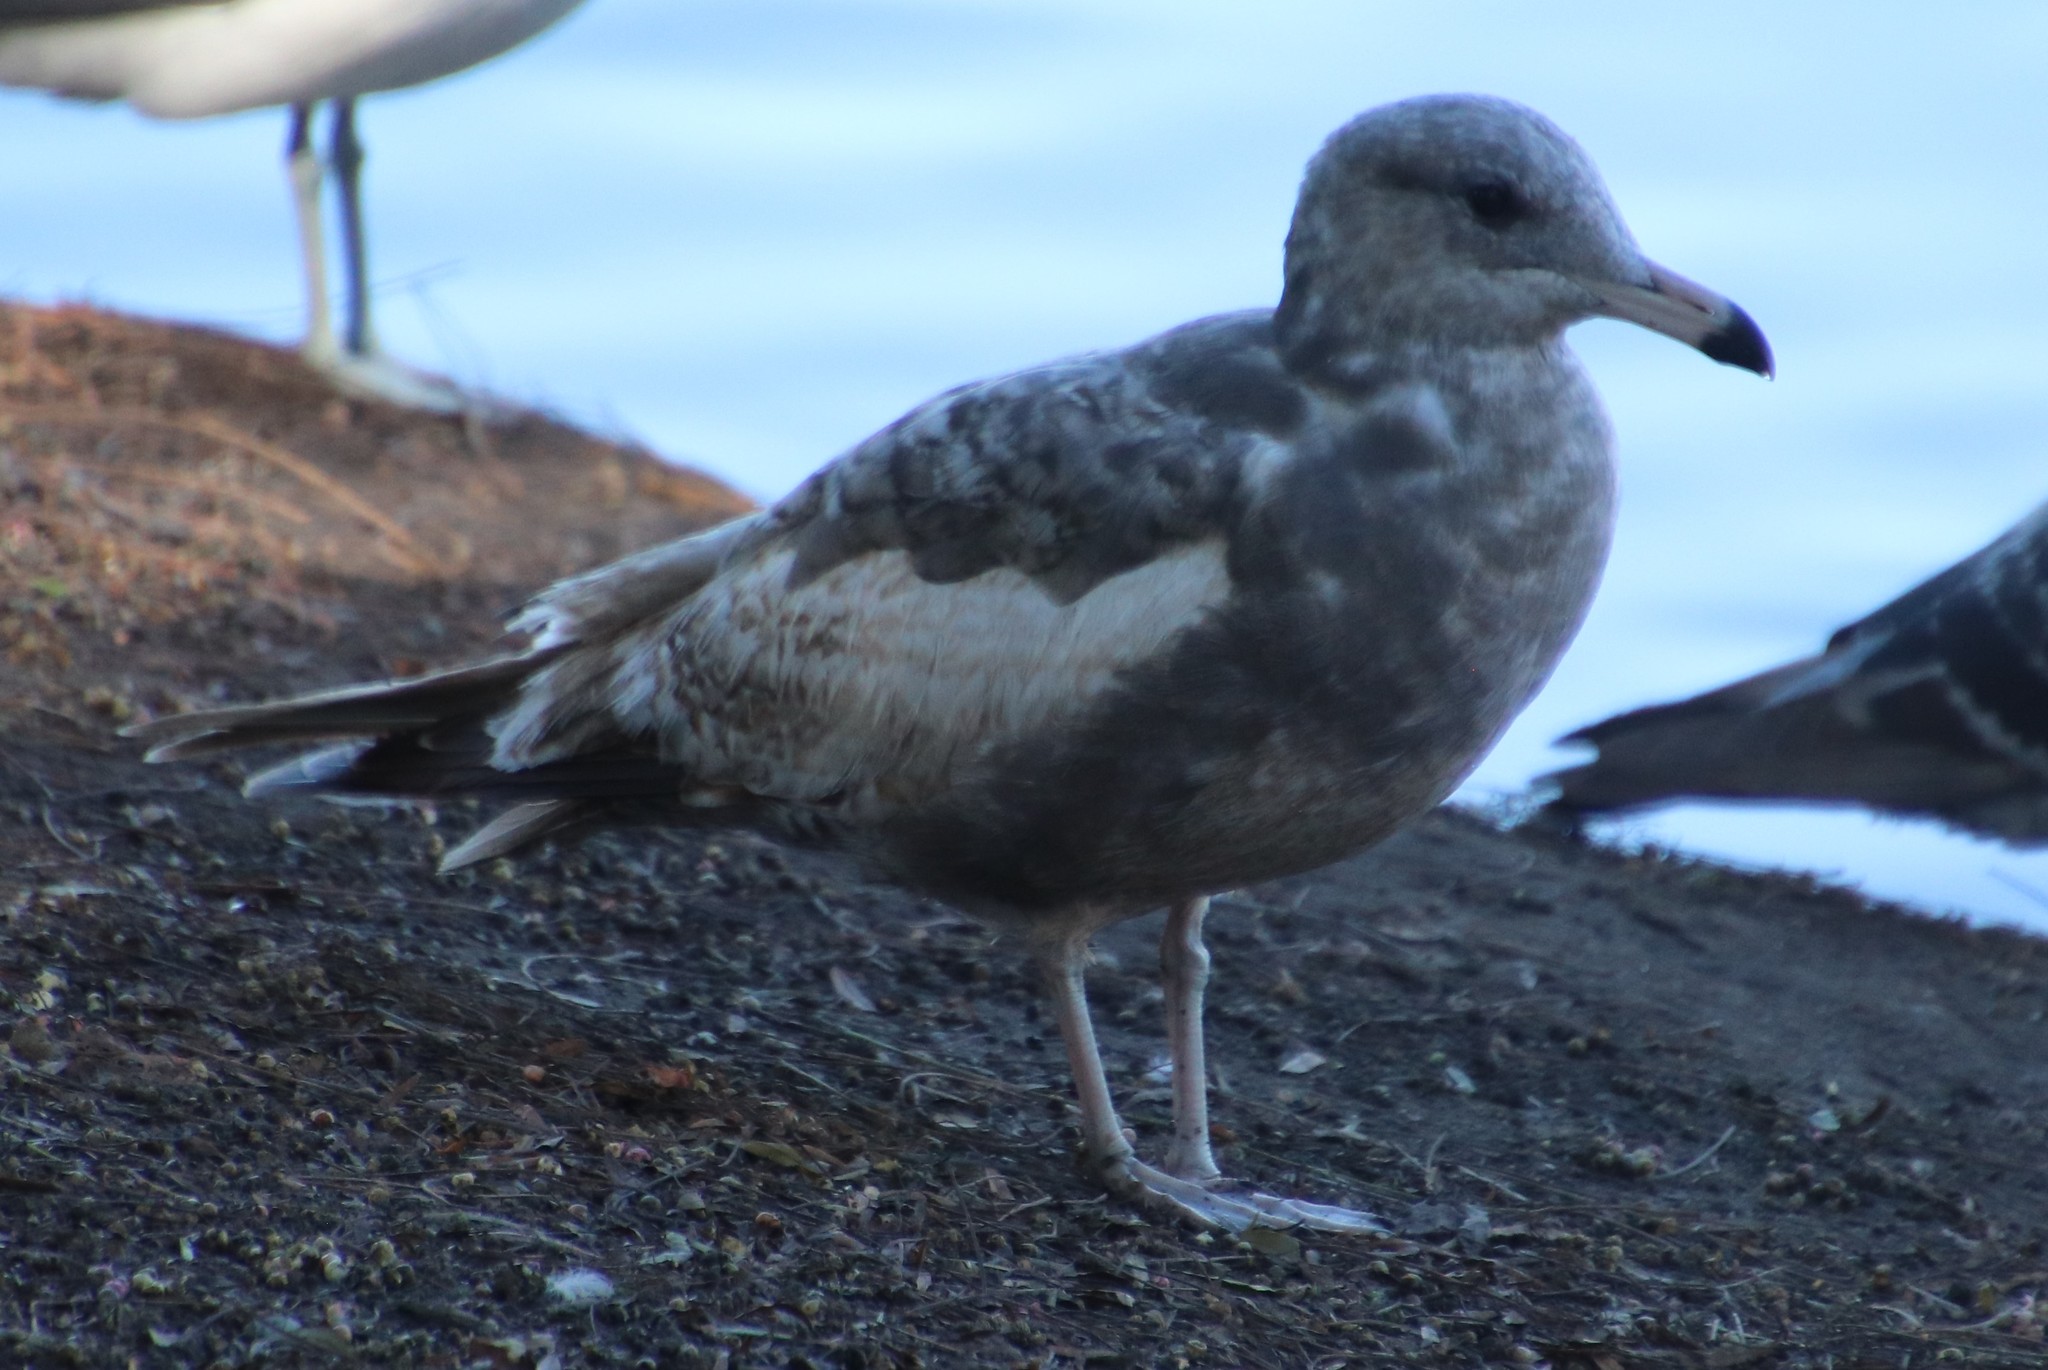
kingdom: Animalia
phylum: Chordata
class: Aves
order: Charadriiformes
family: Laridae
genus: Larus
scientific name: Larus californicus
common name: California gull
